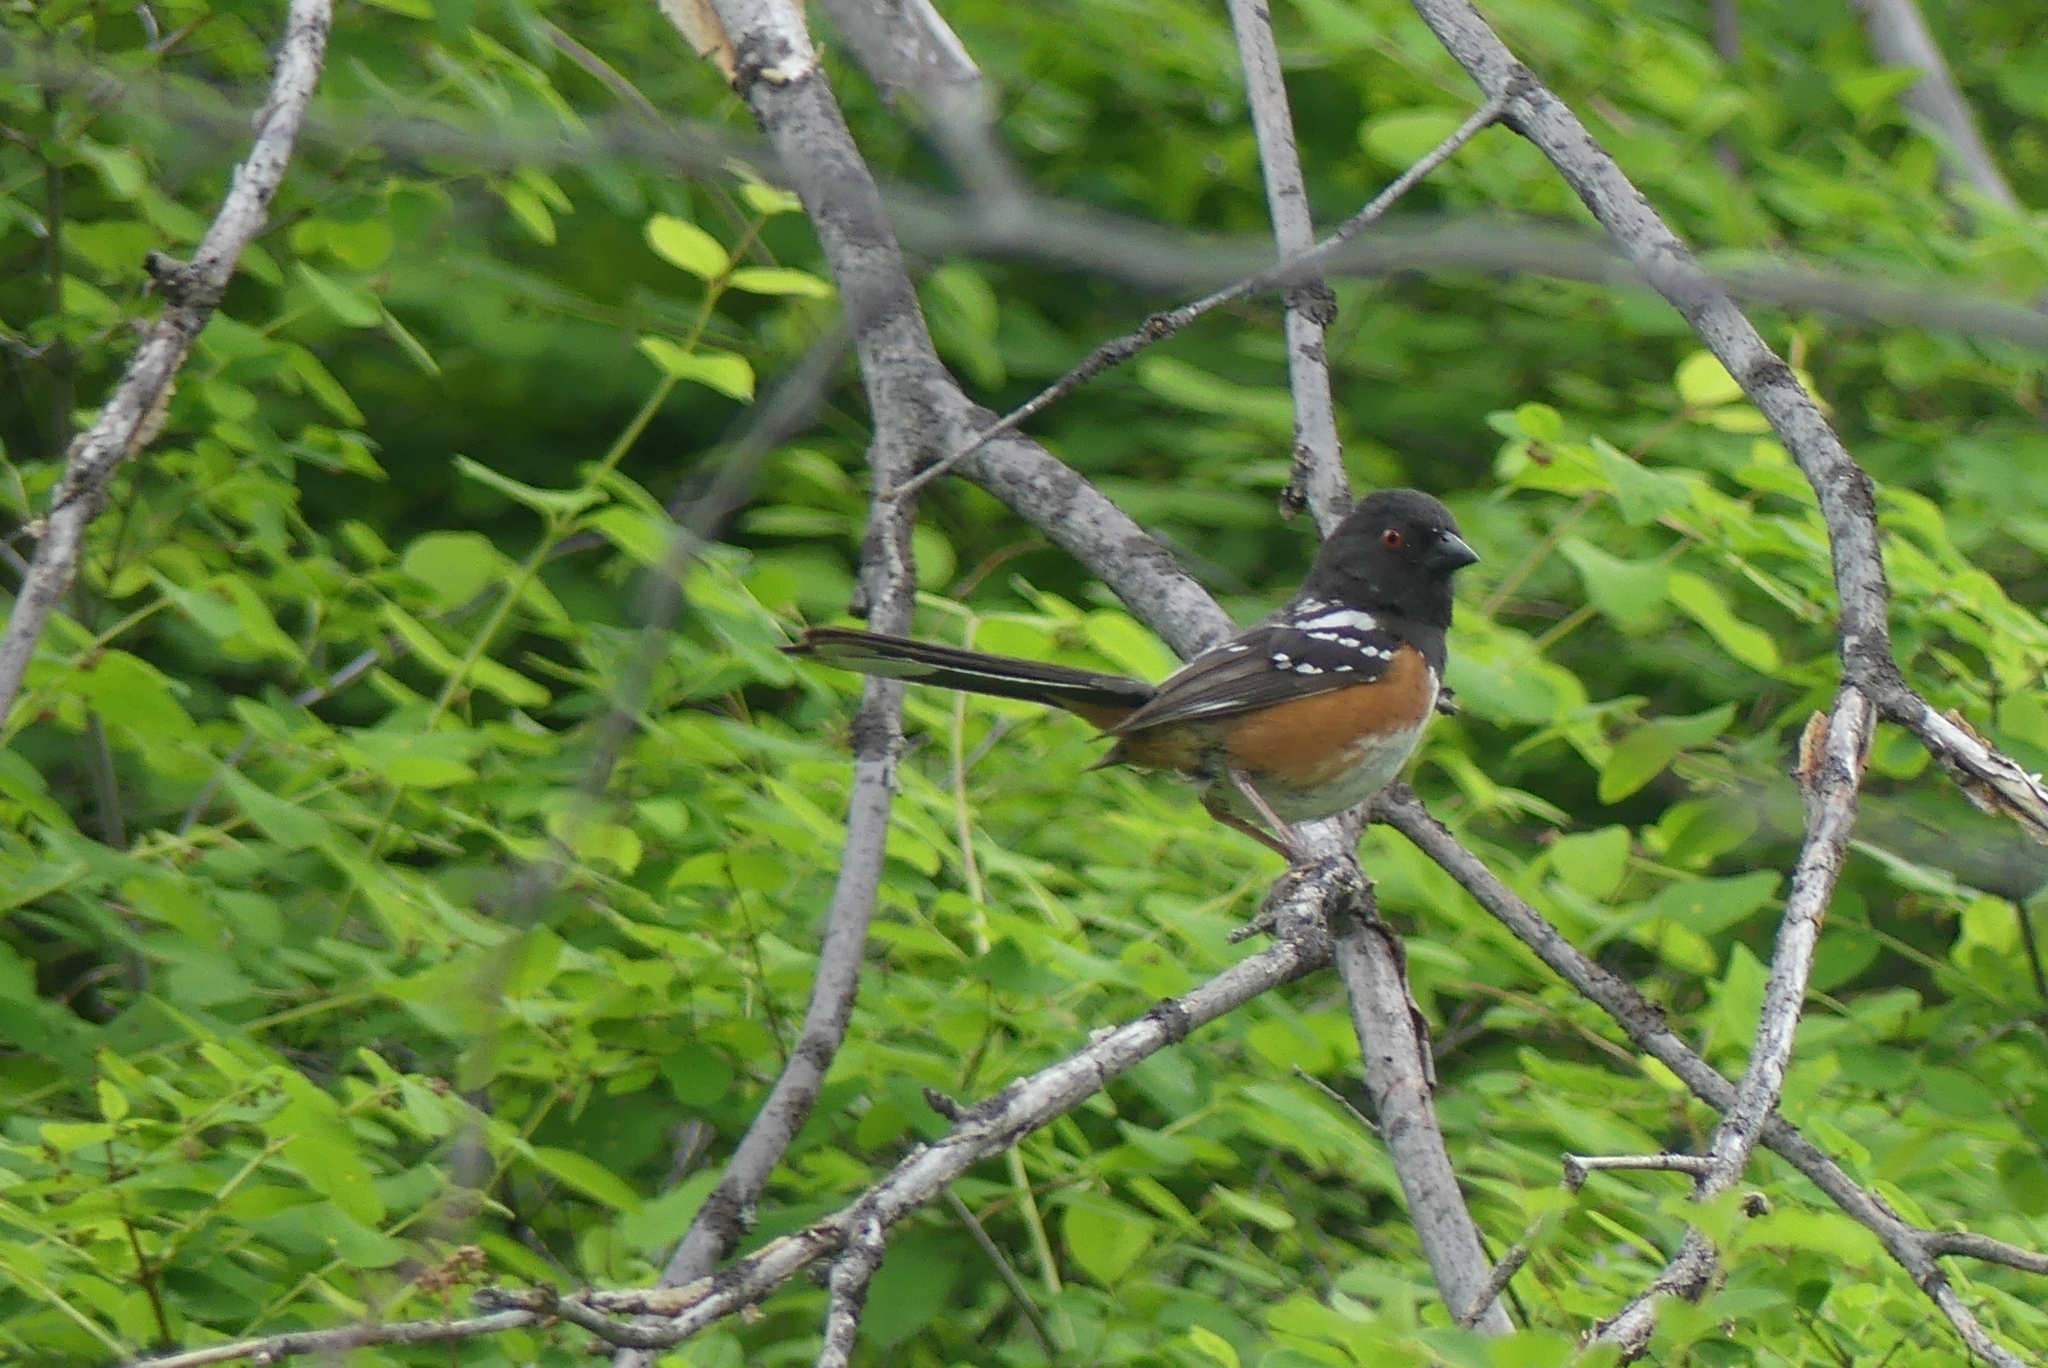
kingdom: Animalia
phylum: Chordata
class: Aves
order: Passeriformes
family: Passerellidae
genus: Pipilo
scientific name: Pipilo maculatus
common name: Spotted towhee
